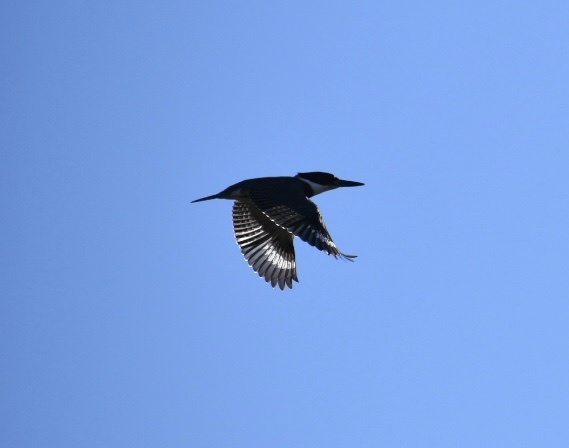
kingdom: Animalia
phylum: Chordata
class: Aves
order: Coraciiformes
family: Alcedinidae
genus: Megaceryle
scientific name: Megaceryle alcyon
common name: Belted kingfisher
